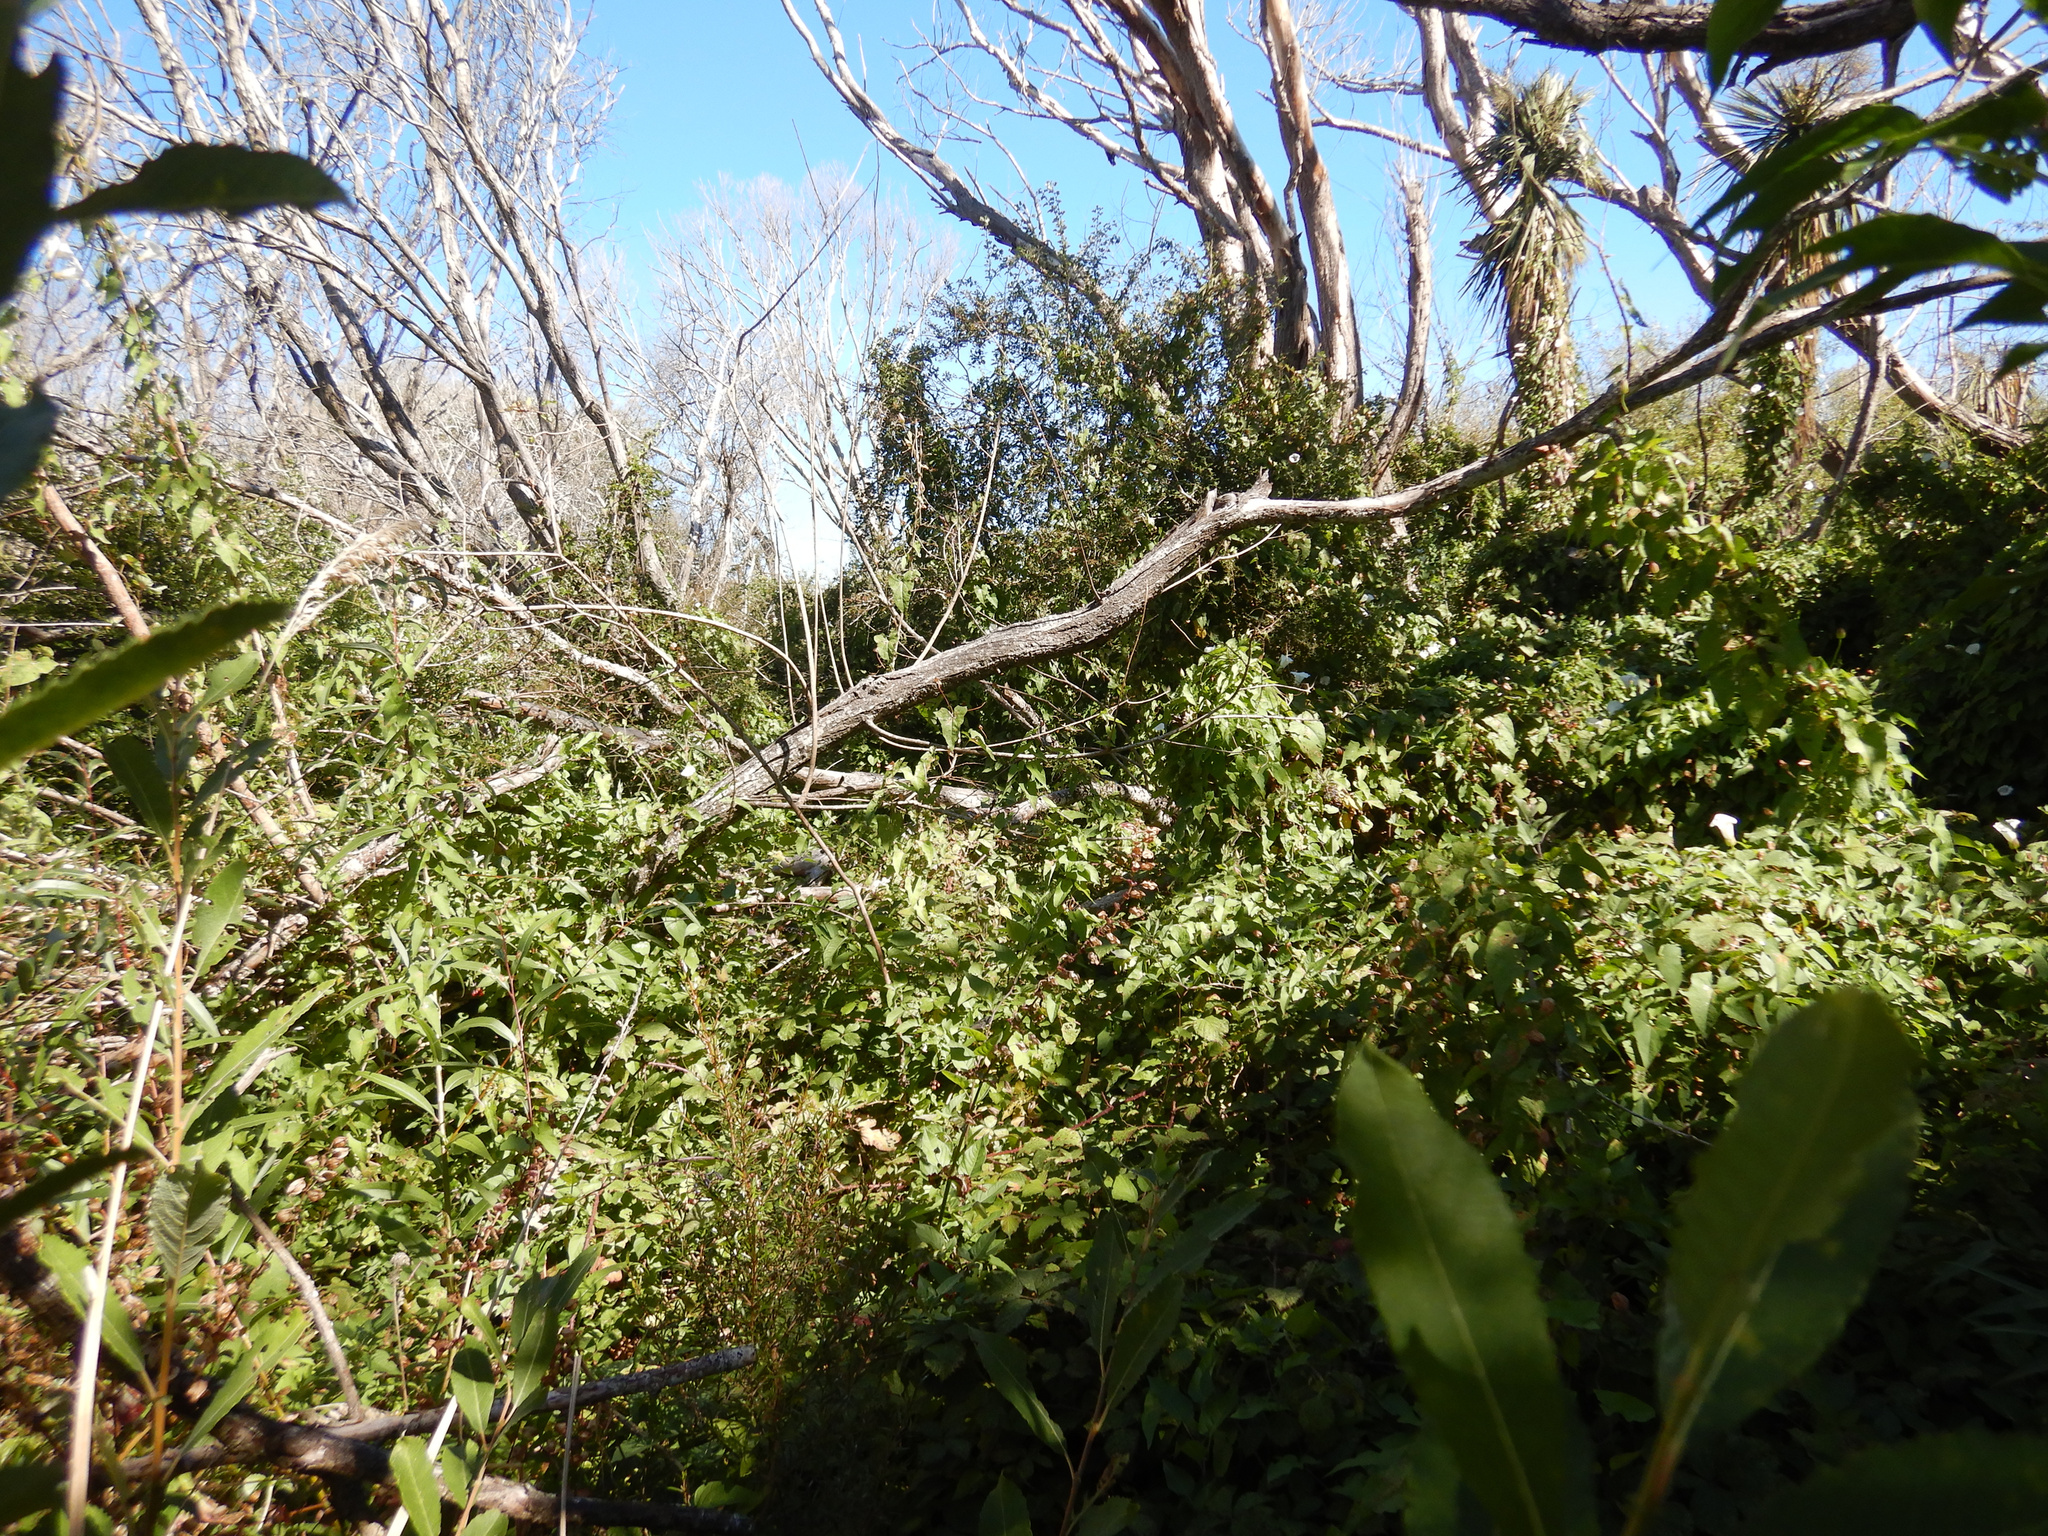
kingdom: Plantae
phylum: Tracheophyta
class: Magnoliopsida
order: Solanales
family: Convolvulaceae
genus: Calystegia
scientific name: Calystegia silvatica
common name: Large bindweed
